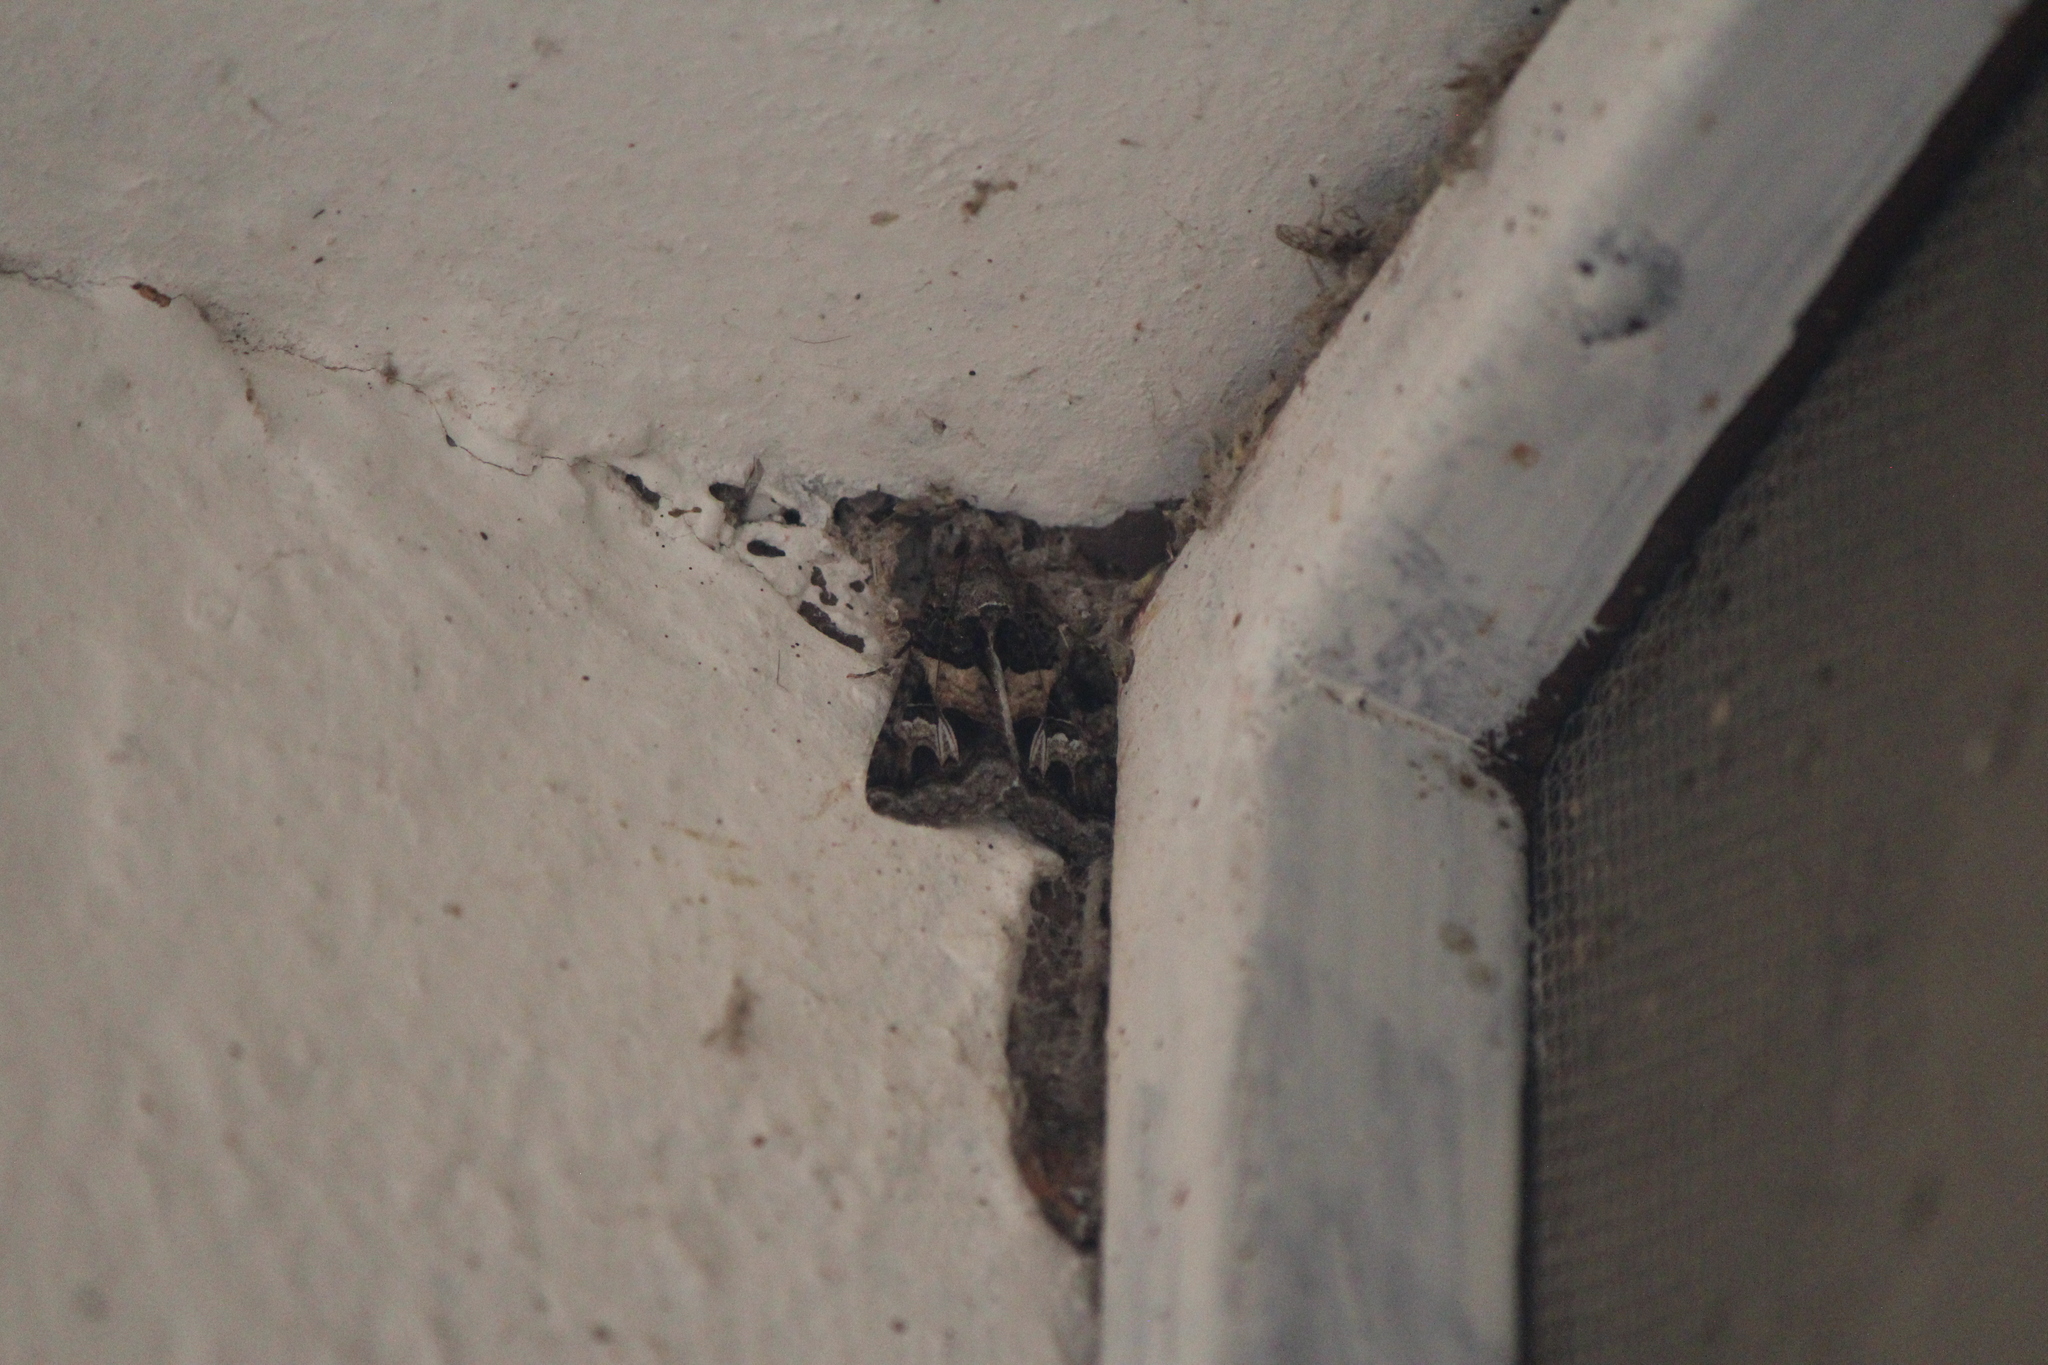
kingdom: Animalia
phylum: Arthropoda
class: Insecta
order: Lepidoptera
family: Erebidae
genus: Melipotis
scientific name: Melipotis novanda
